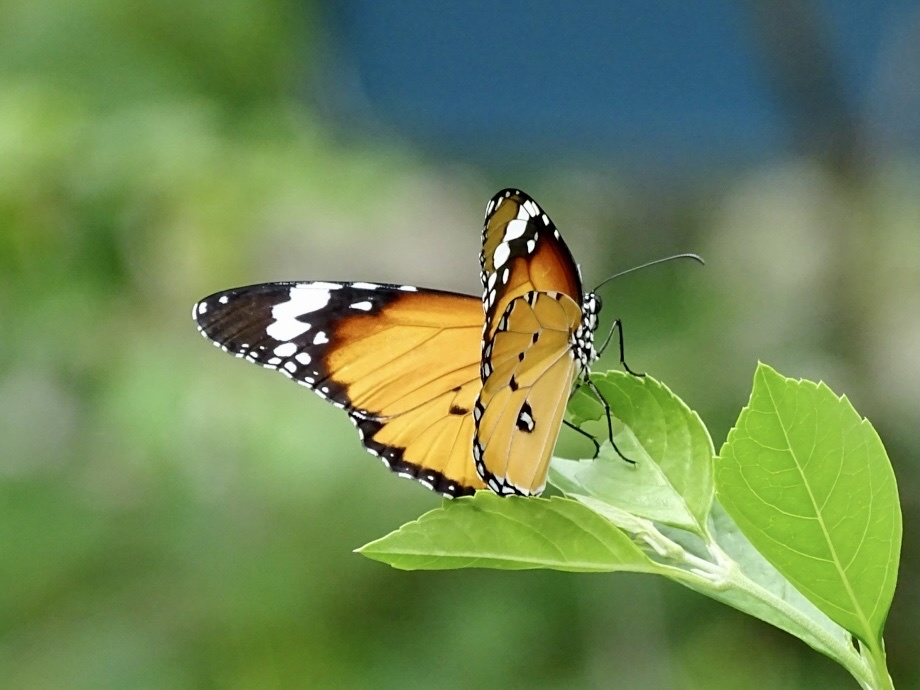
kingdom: Animalia
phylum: Arthropoda
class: Insecta
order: Lepidoptera
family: Nymphalidae
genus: Danaus
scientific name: Danaus chrysippus
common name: Plain tiger
